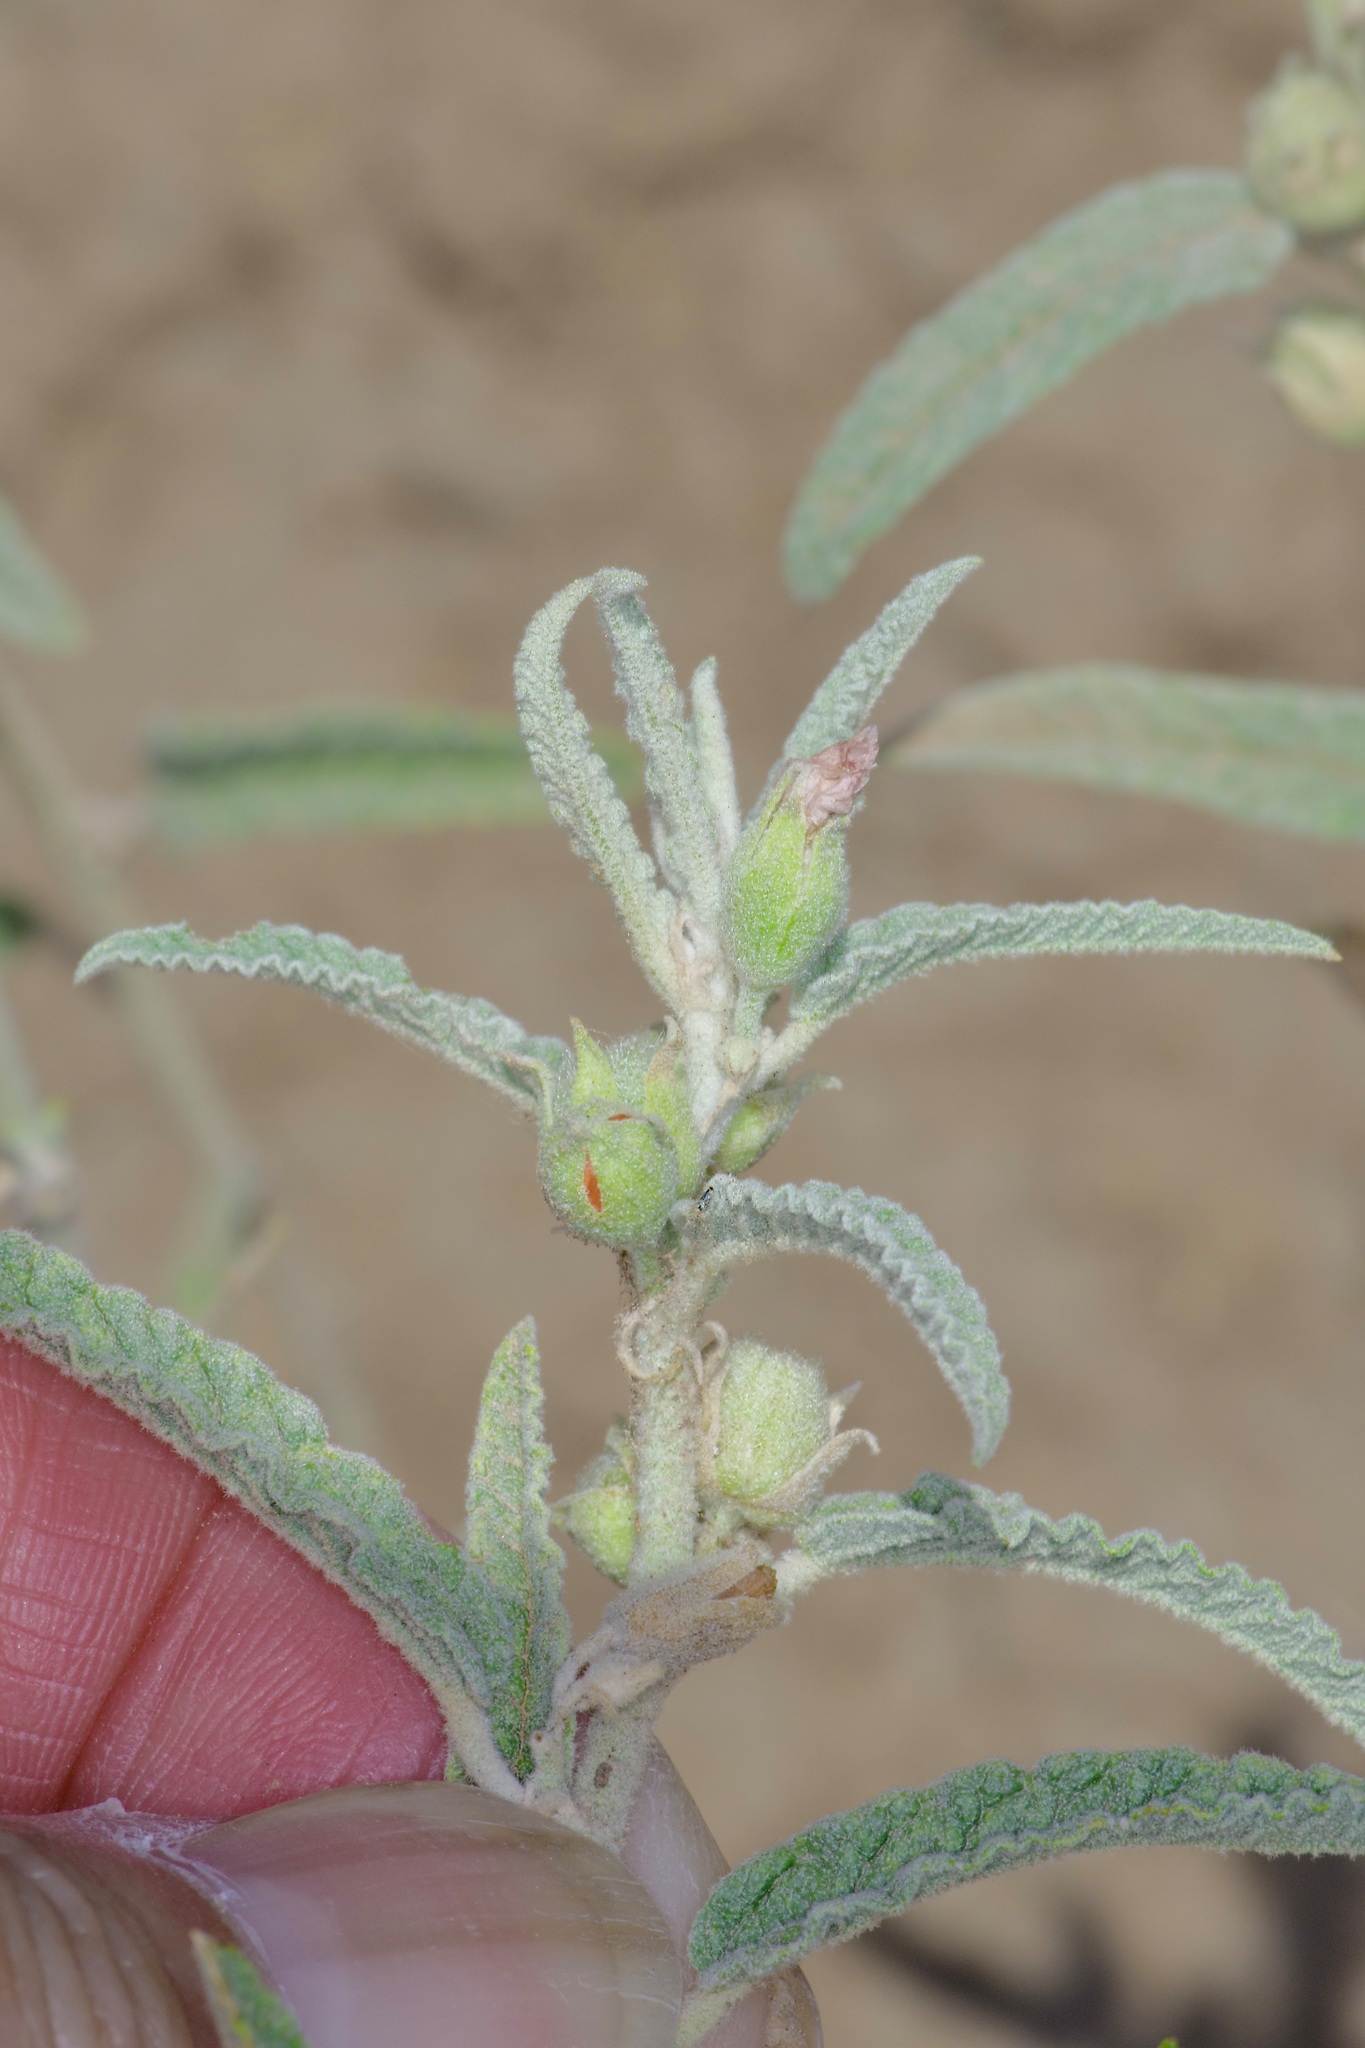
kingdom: Plantae
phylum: Tracheophyta
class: Magnoliopsida
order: Malvales
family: Malvaceae
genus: Sphaeralcea
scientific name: Sphaeralcea angustifolia
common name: Copper globe-mallow
